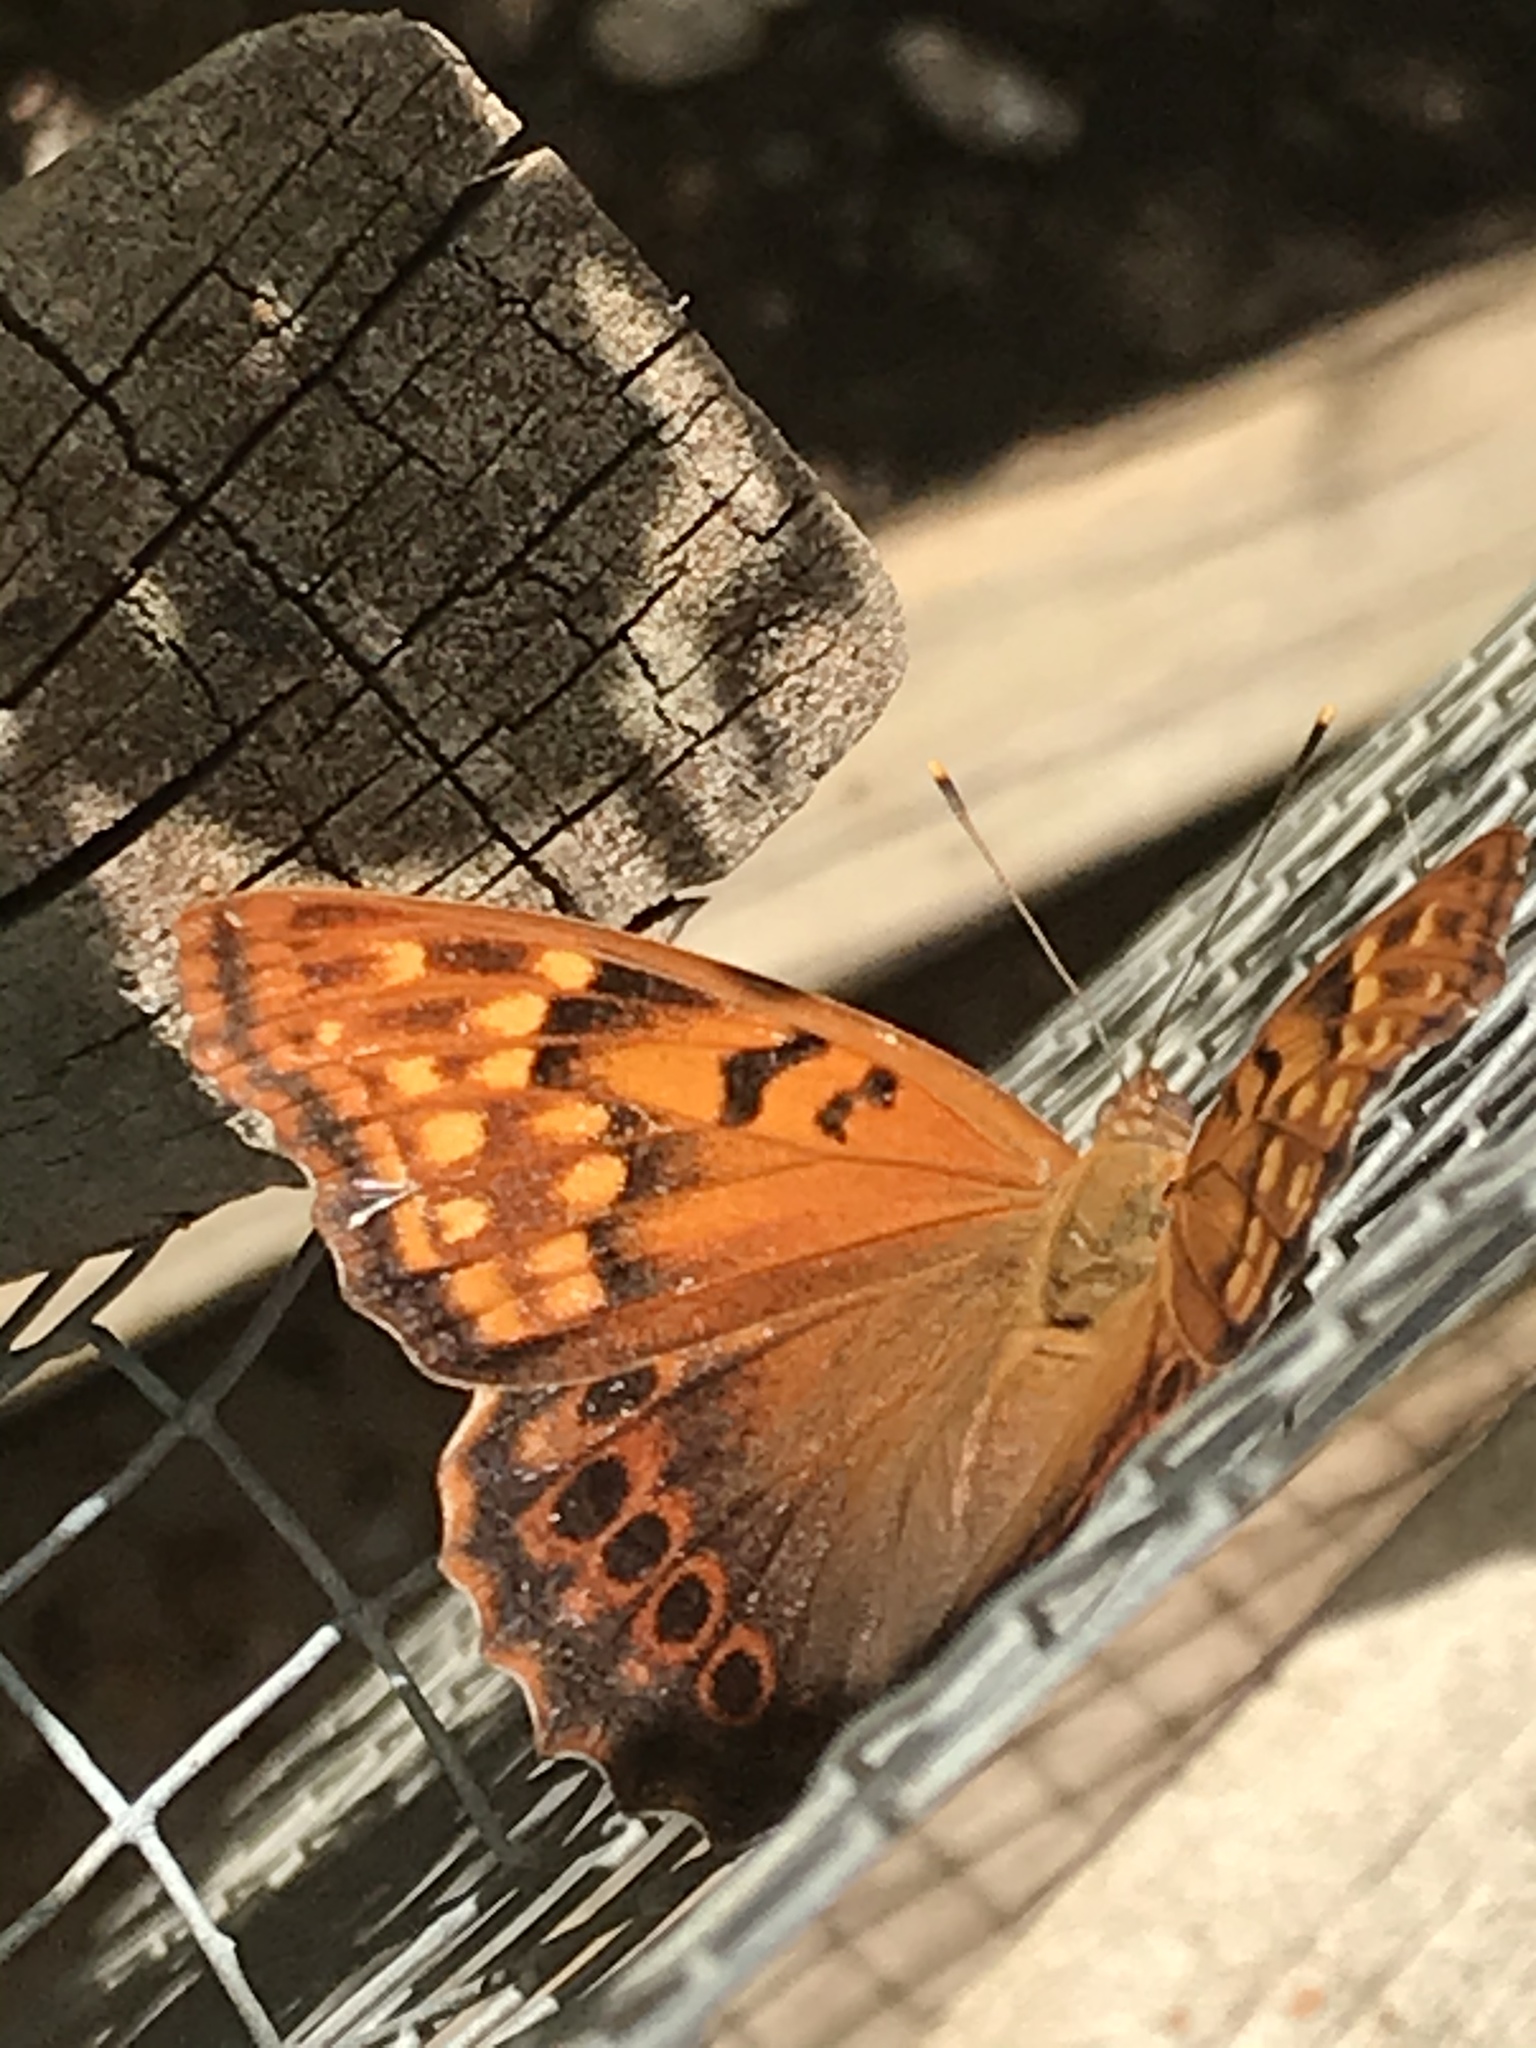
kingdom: Animalia
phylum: Arthropoda
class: Insecta
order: Lepidoptera
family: Nymphalidae
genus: Asterocampa
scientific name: Asterocampa clyton
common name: Tawny emperor
